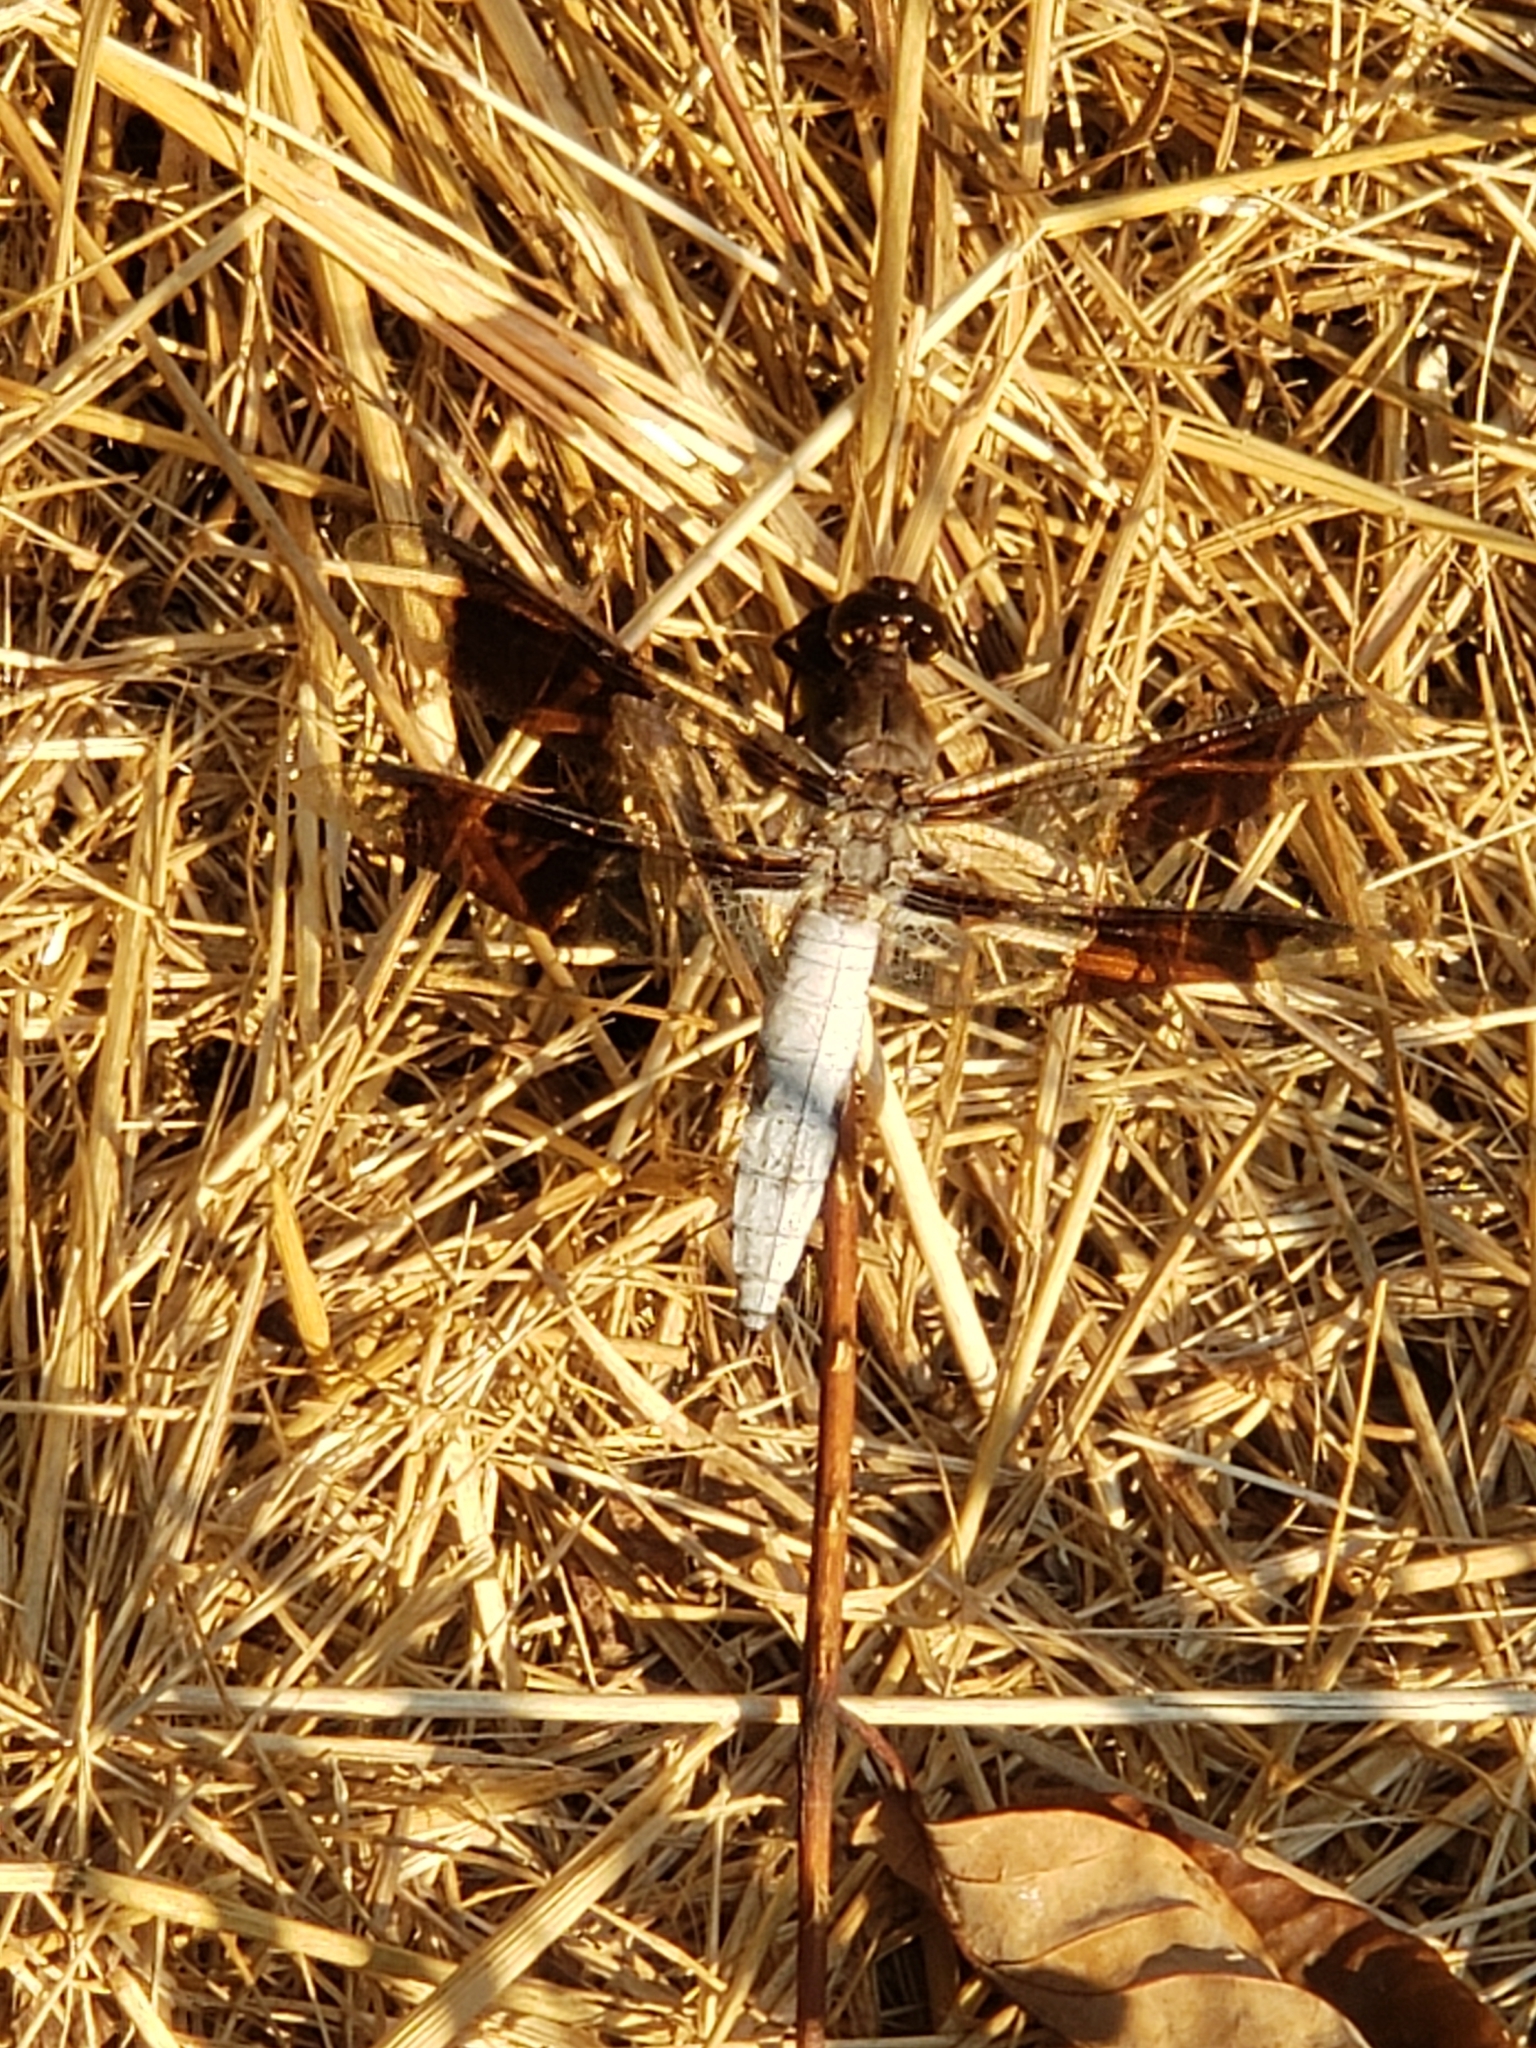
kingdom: Animalia
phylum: Arthropoda
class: Insecta
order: Odonata
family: Libellulidae
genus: Plathemis
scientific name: Plathemis lydia
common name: Common whitetail
